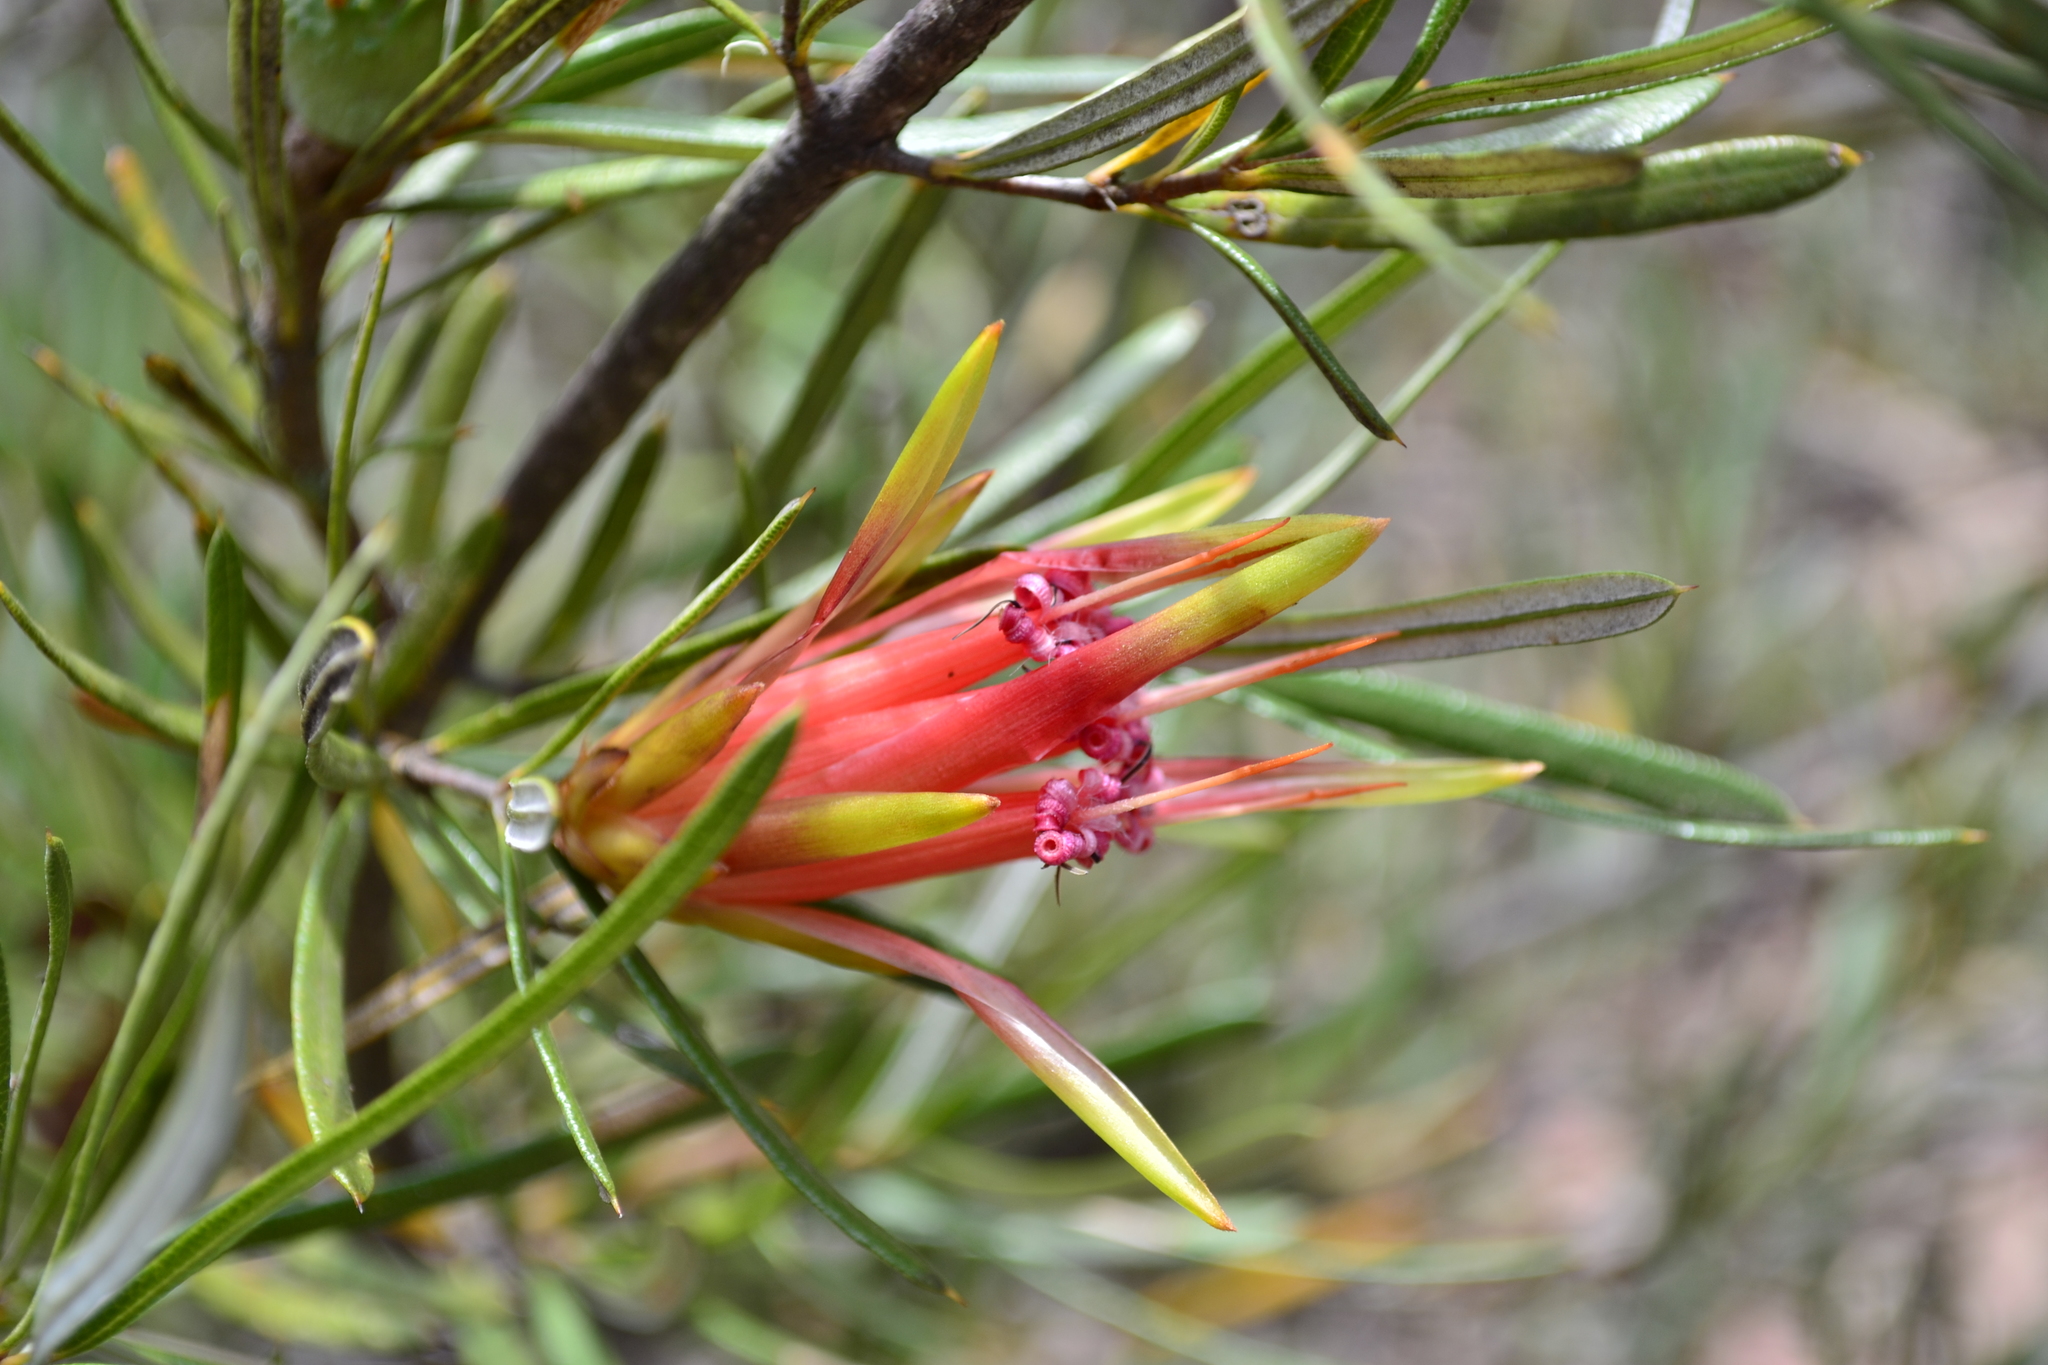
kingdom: Plantae
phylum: Tracheophyta
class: Magnoliopsida
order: Proteales
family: Proteaceae
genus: Lambertia
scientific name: Lambertia formosa
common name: Mountain-devil
